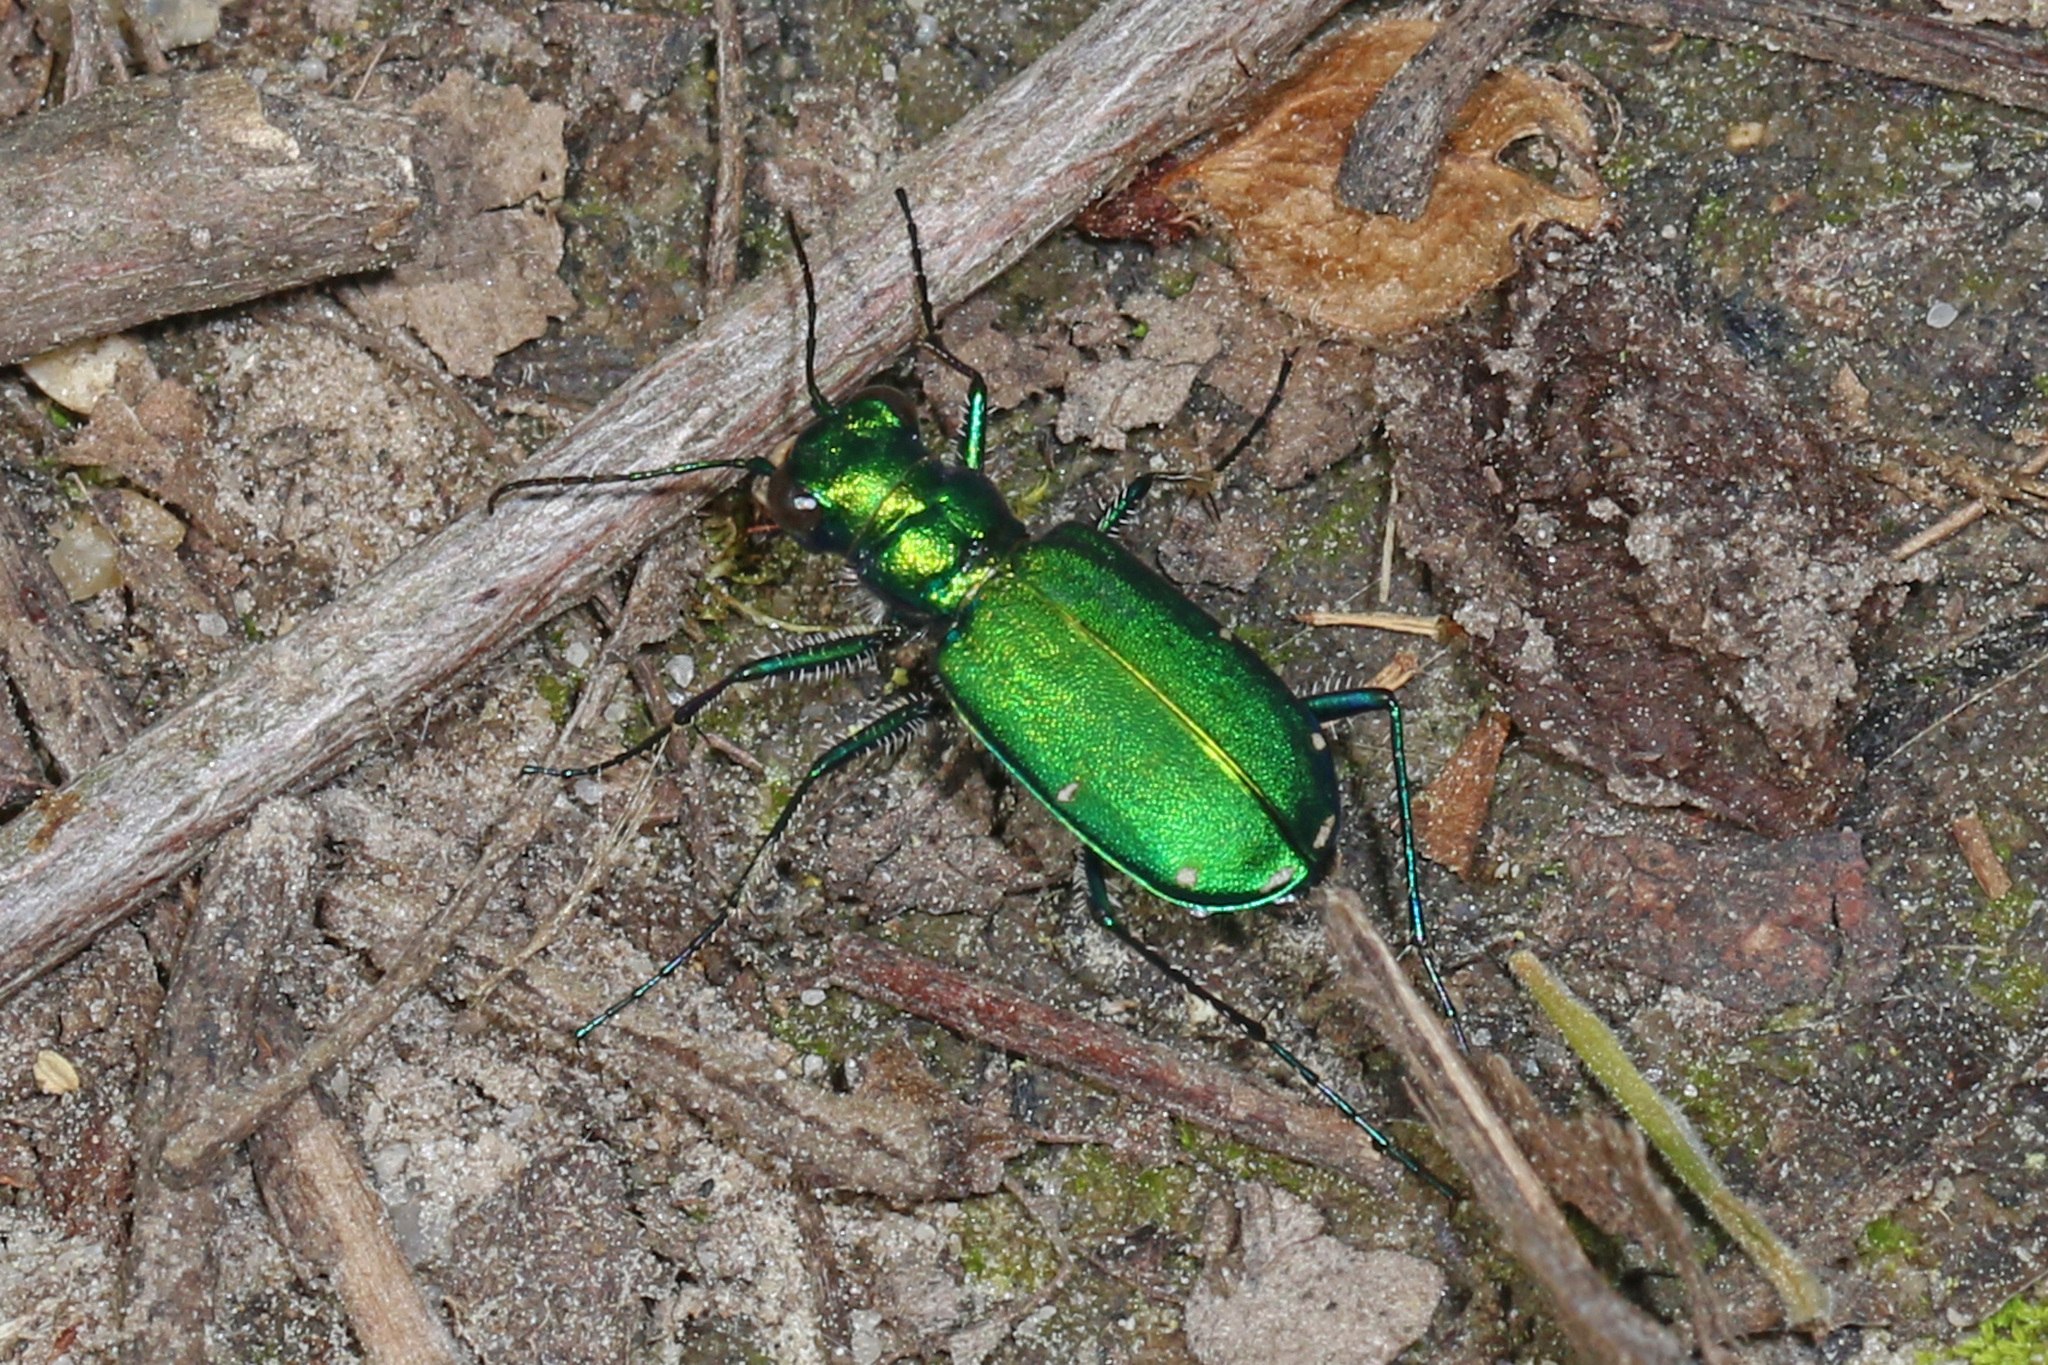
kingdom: Animalia
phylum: Arthropoda
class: Insecta
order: Coleoptera
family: Carabidae
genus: Cicindela
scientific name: Cicindela sexguttata
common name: Six-spotted tiger beetle
